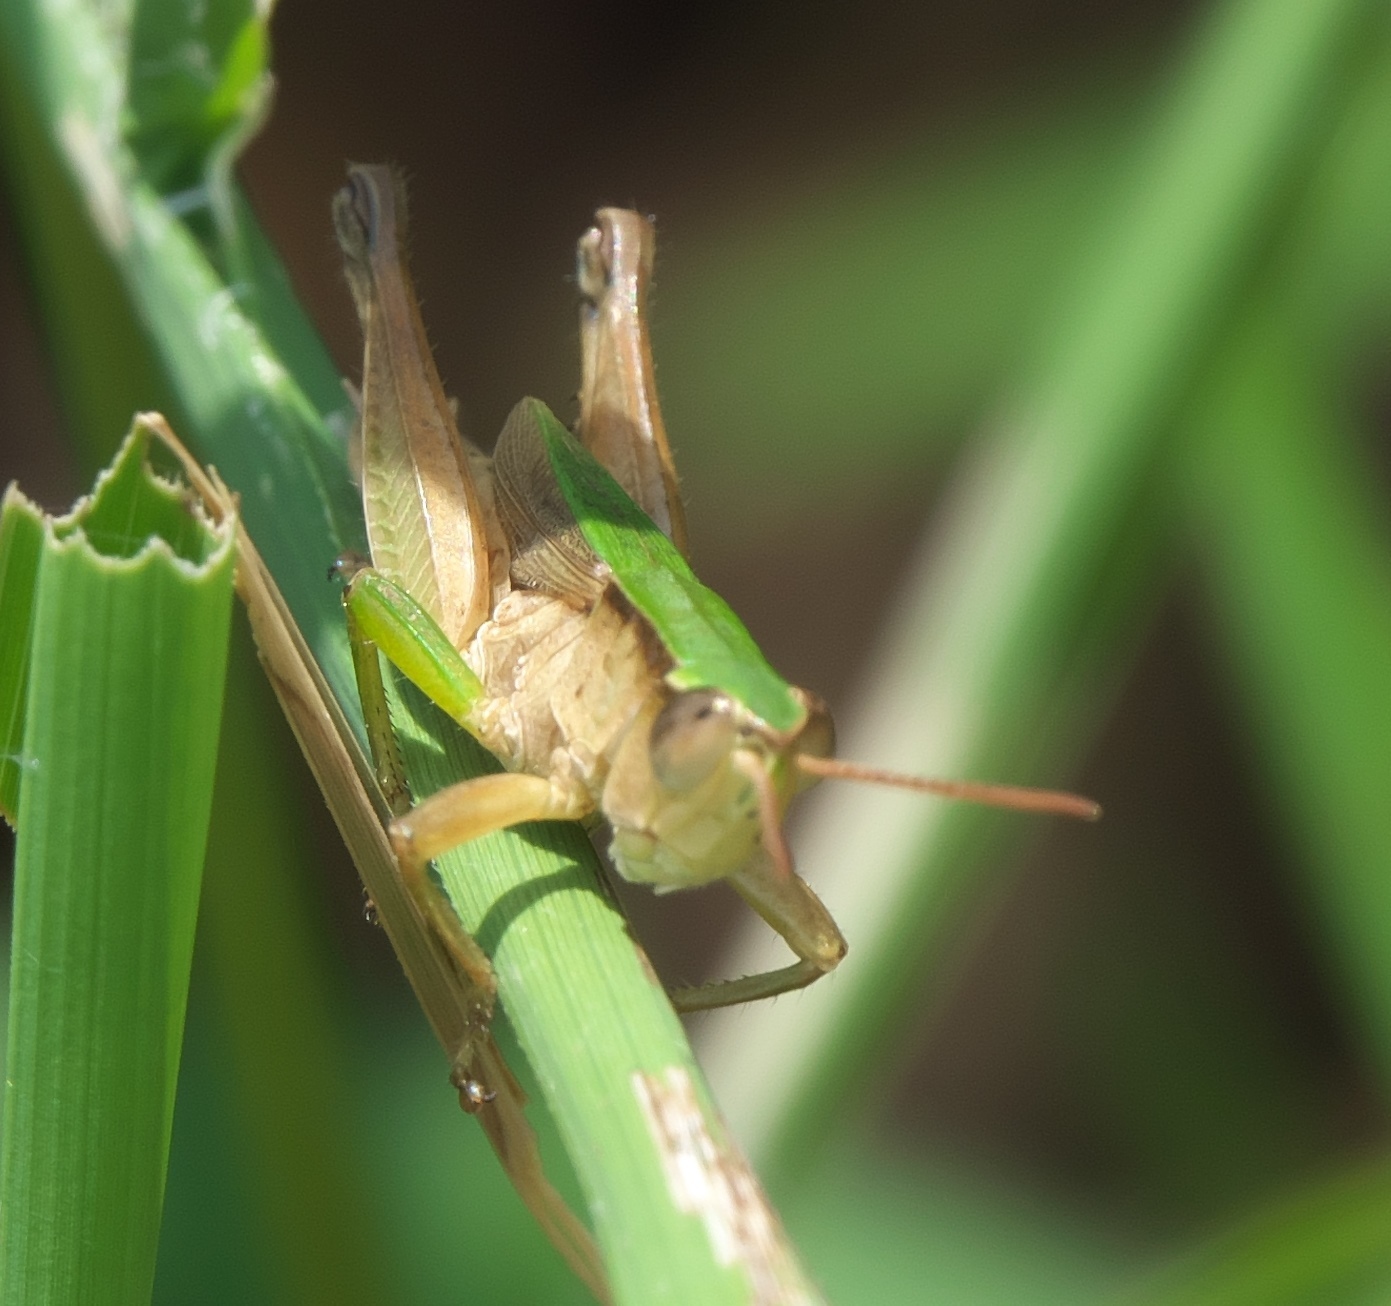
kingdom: Animalia
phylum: Arthropoda
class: Insecta
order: Orthoptera
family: Acrididae
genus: Dichromorpha
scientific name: Dichromorpha viridis
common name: Short-winged green grasshopper
